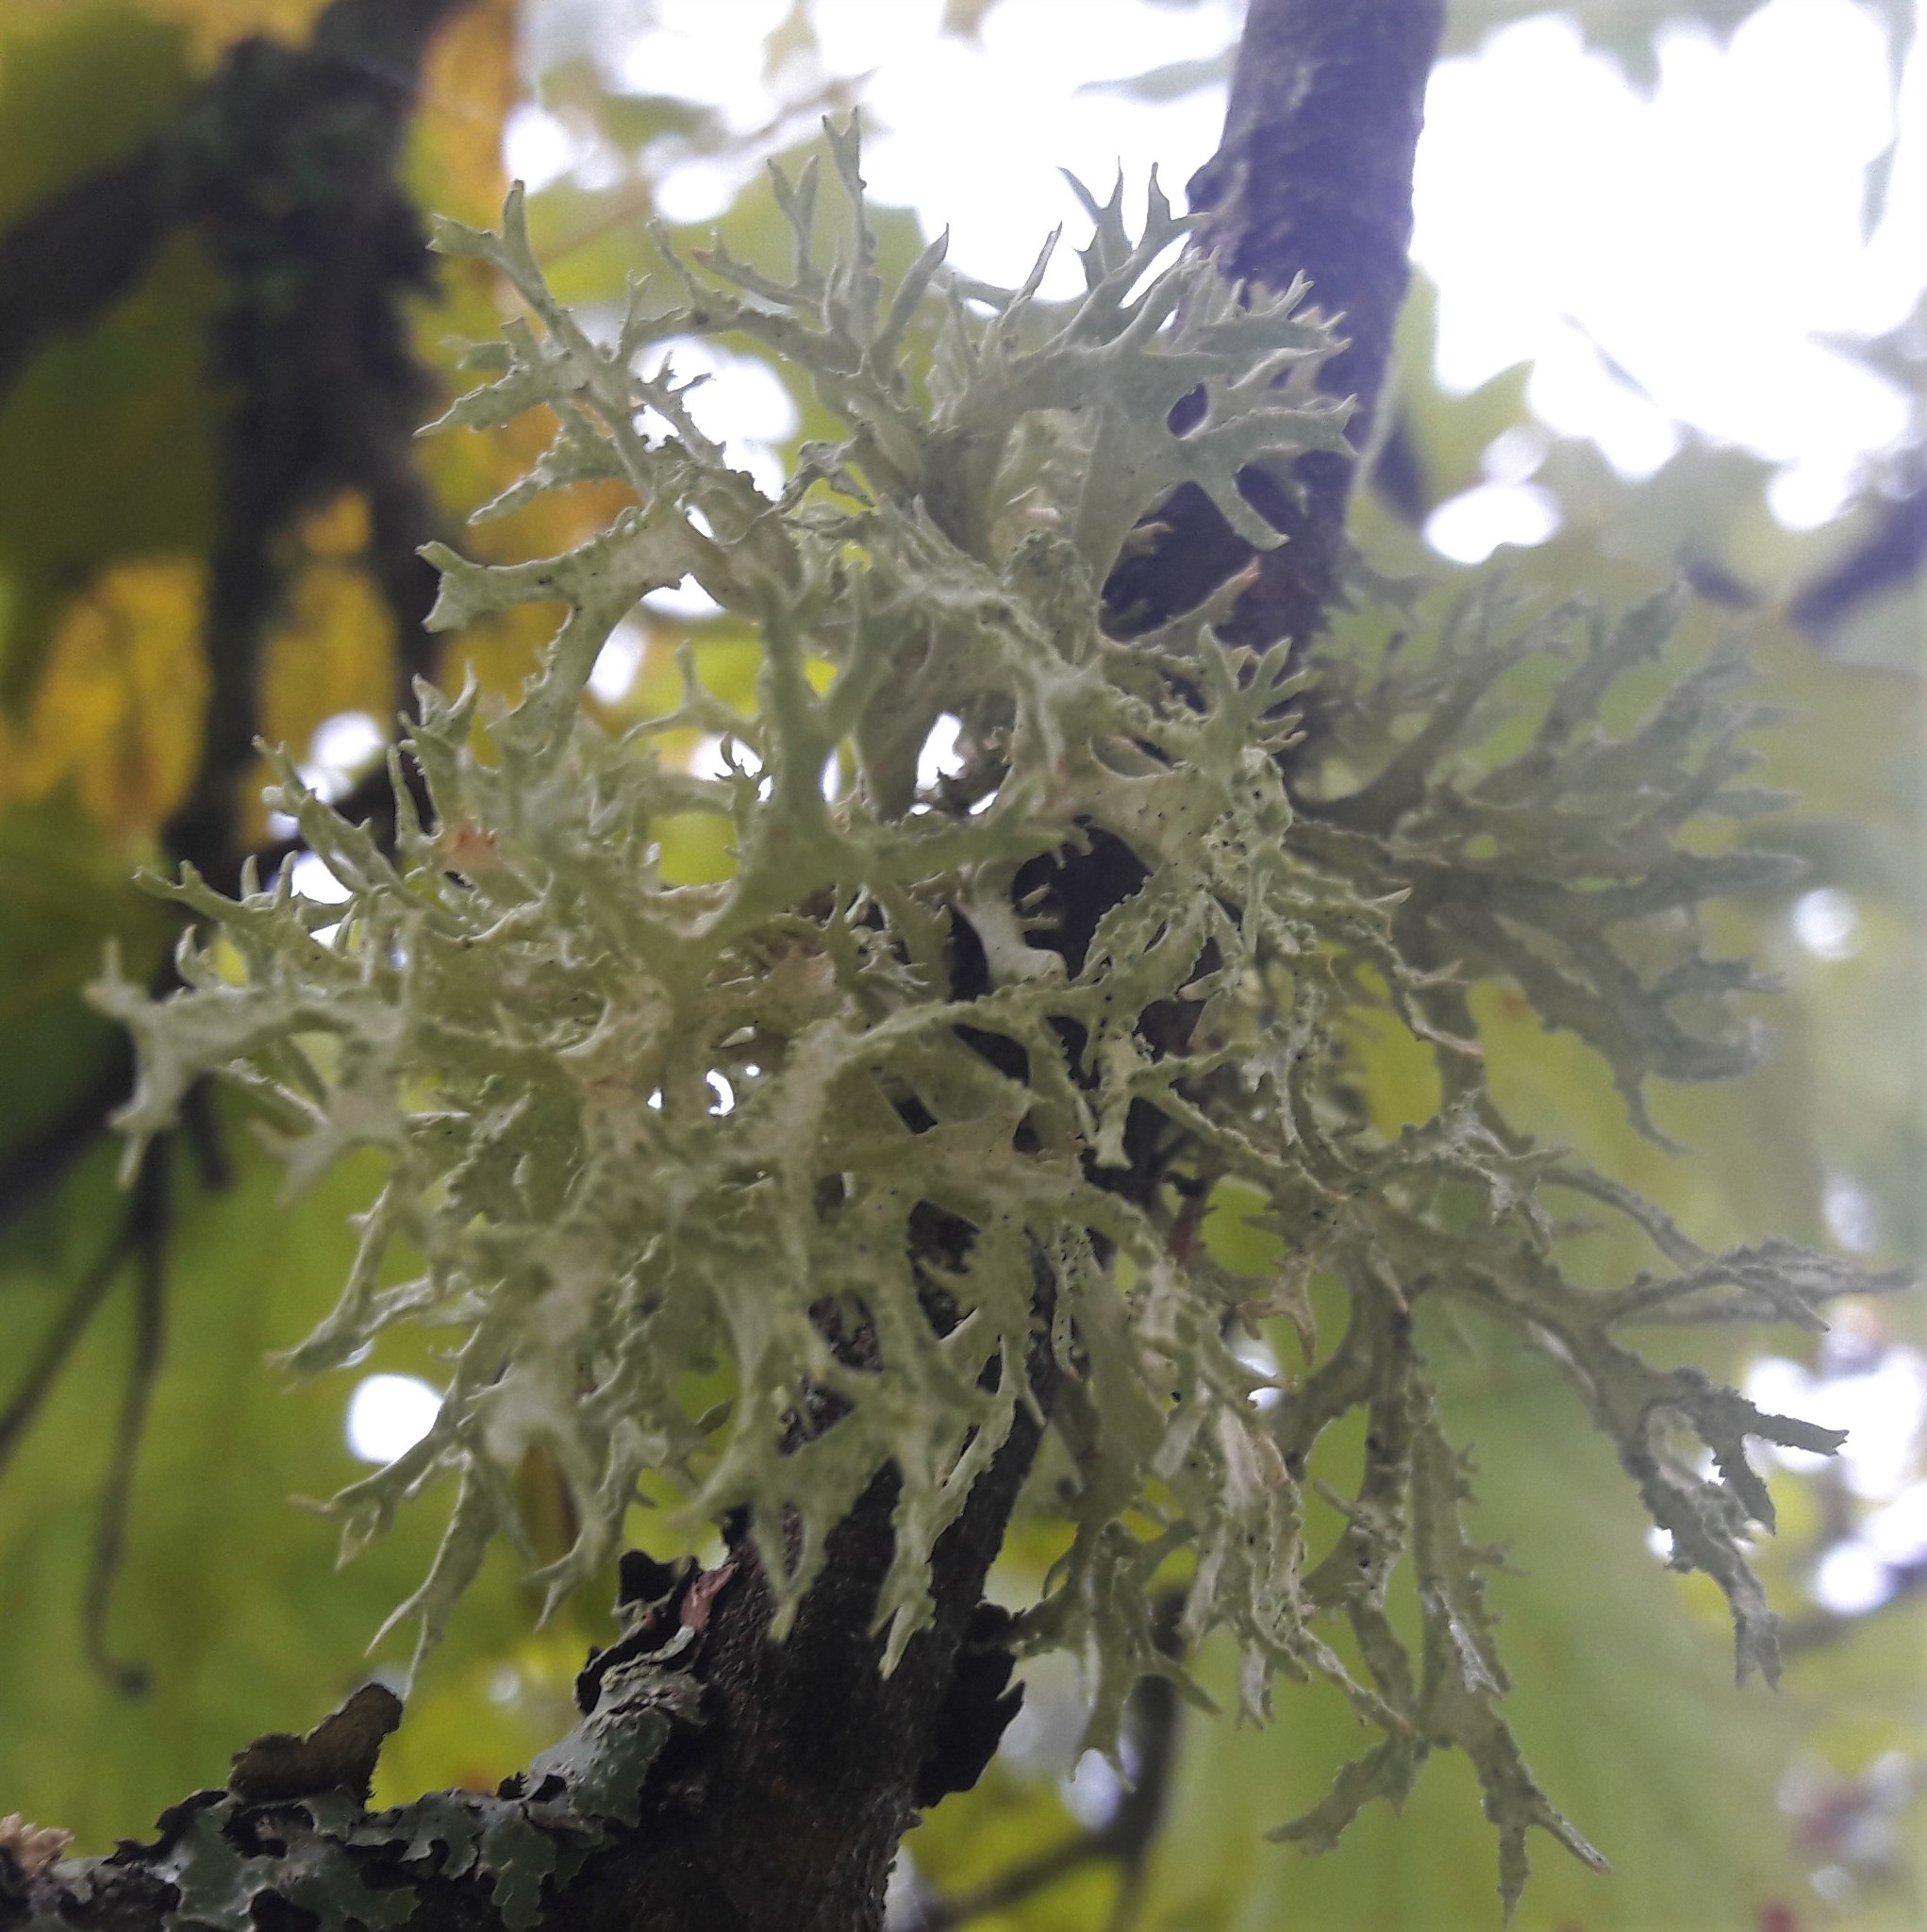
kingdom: Fungi
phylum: Ascomycota
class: Lecanoromycetes
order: Lecanorales
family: Parmeliaceae
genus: Evernia
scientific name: Evernia prunastri
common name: Oak moss
